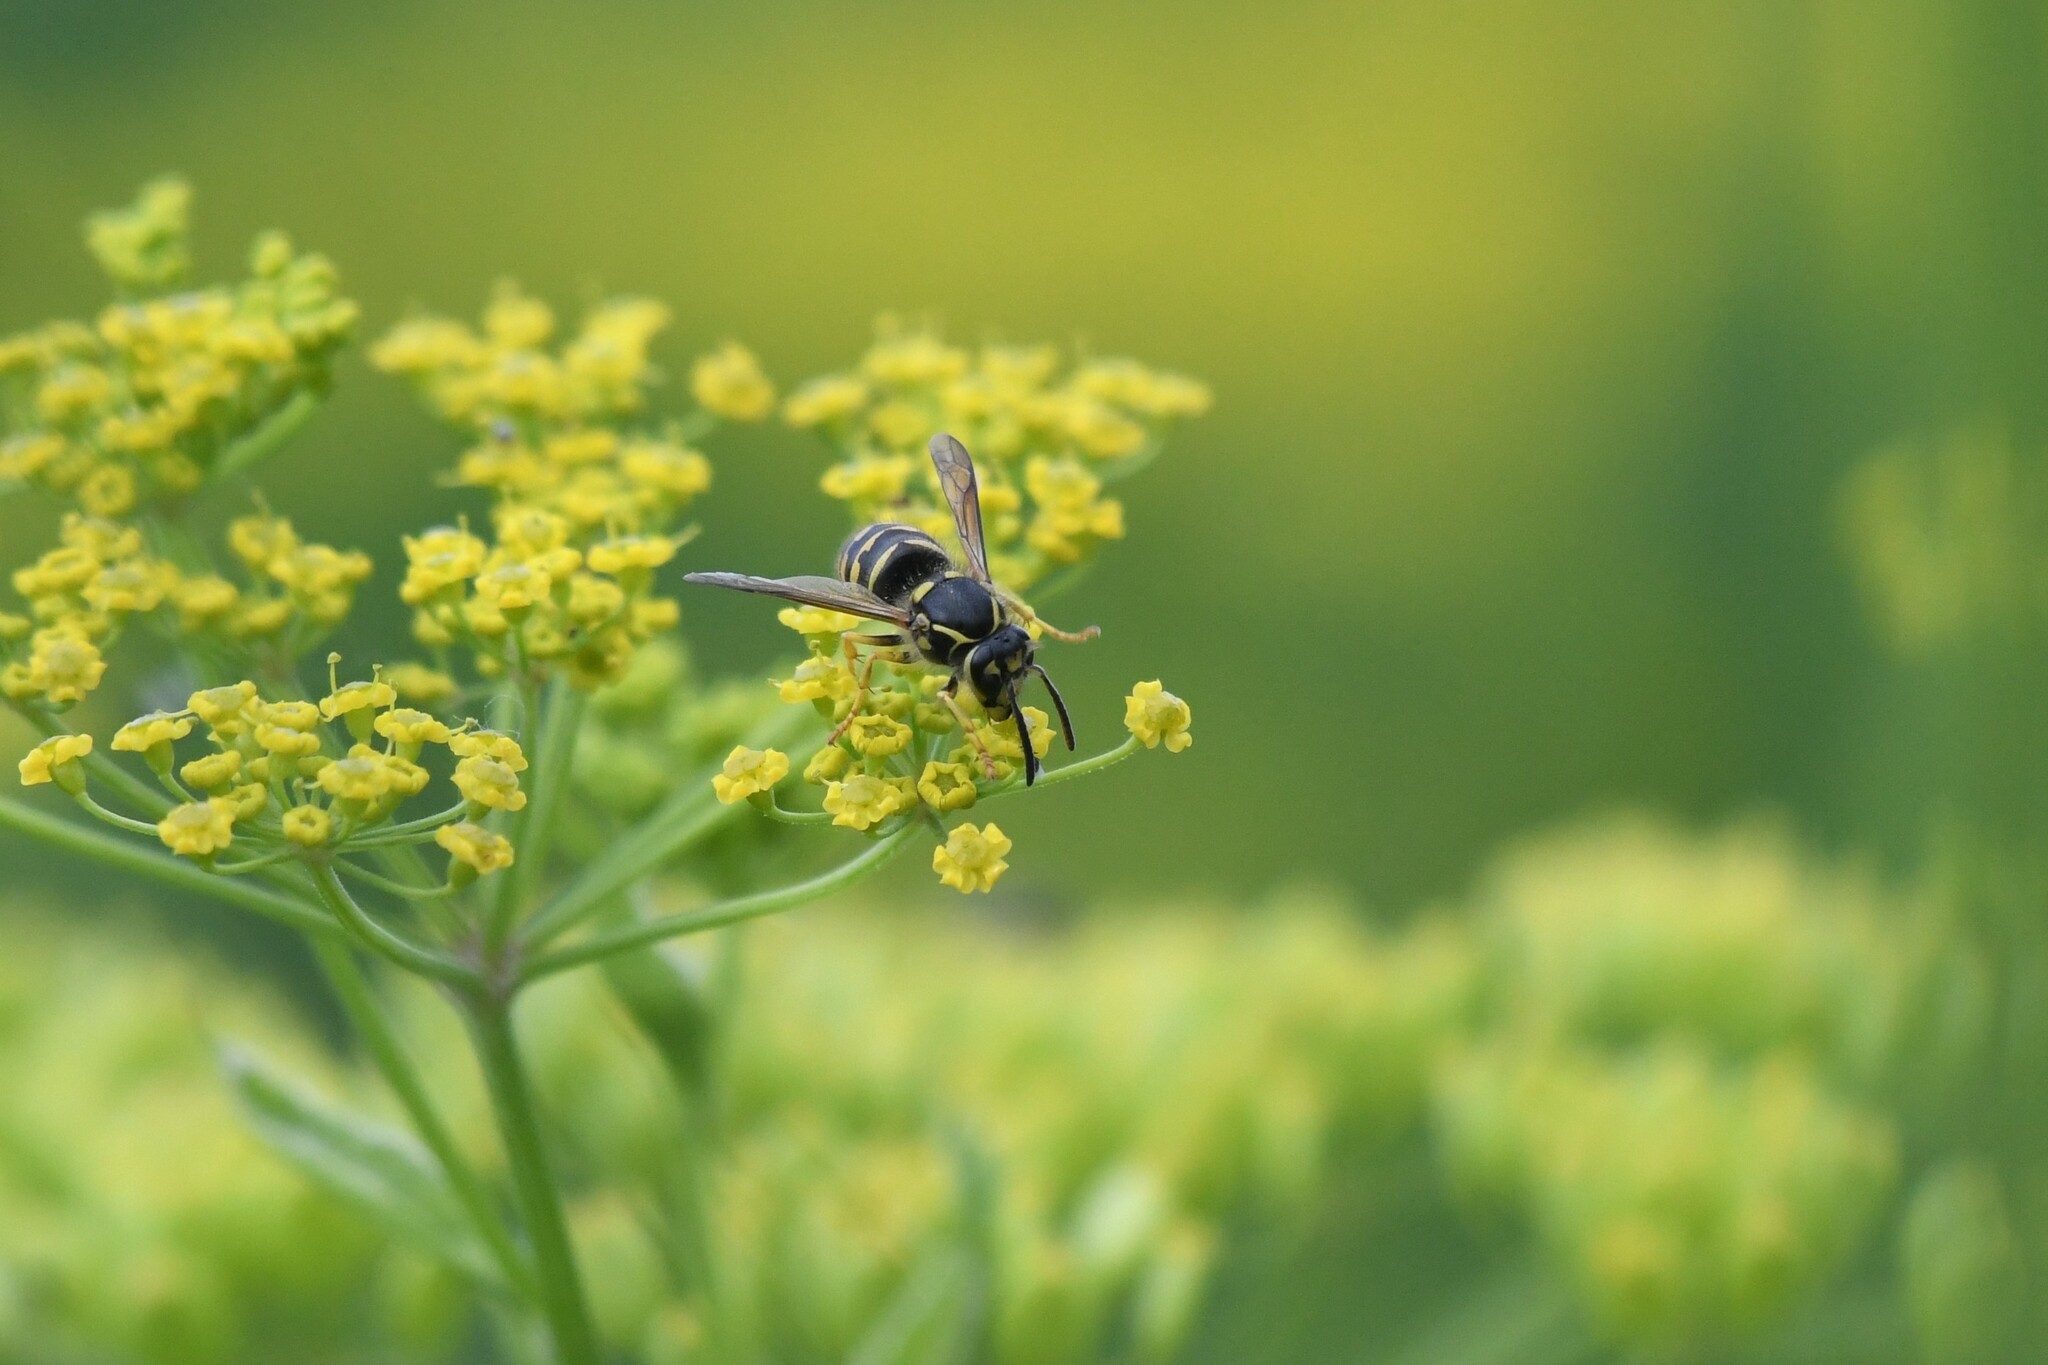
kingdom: Animalia
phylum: Arthropoda
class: Insecta
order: Hymenoptera
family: Vespidae
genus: Dolichovespula
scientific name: Dolichovespula arenaria
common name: Aerial yellowjacket
